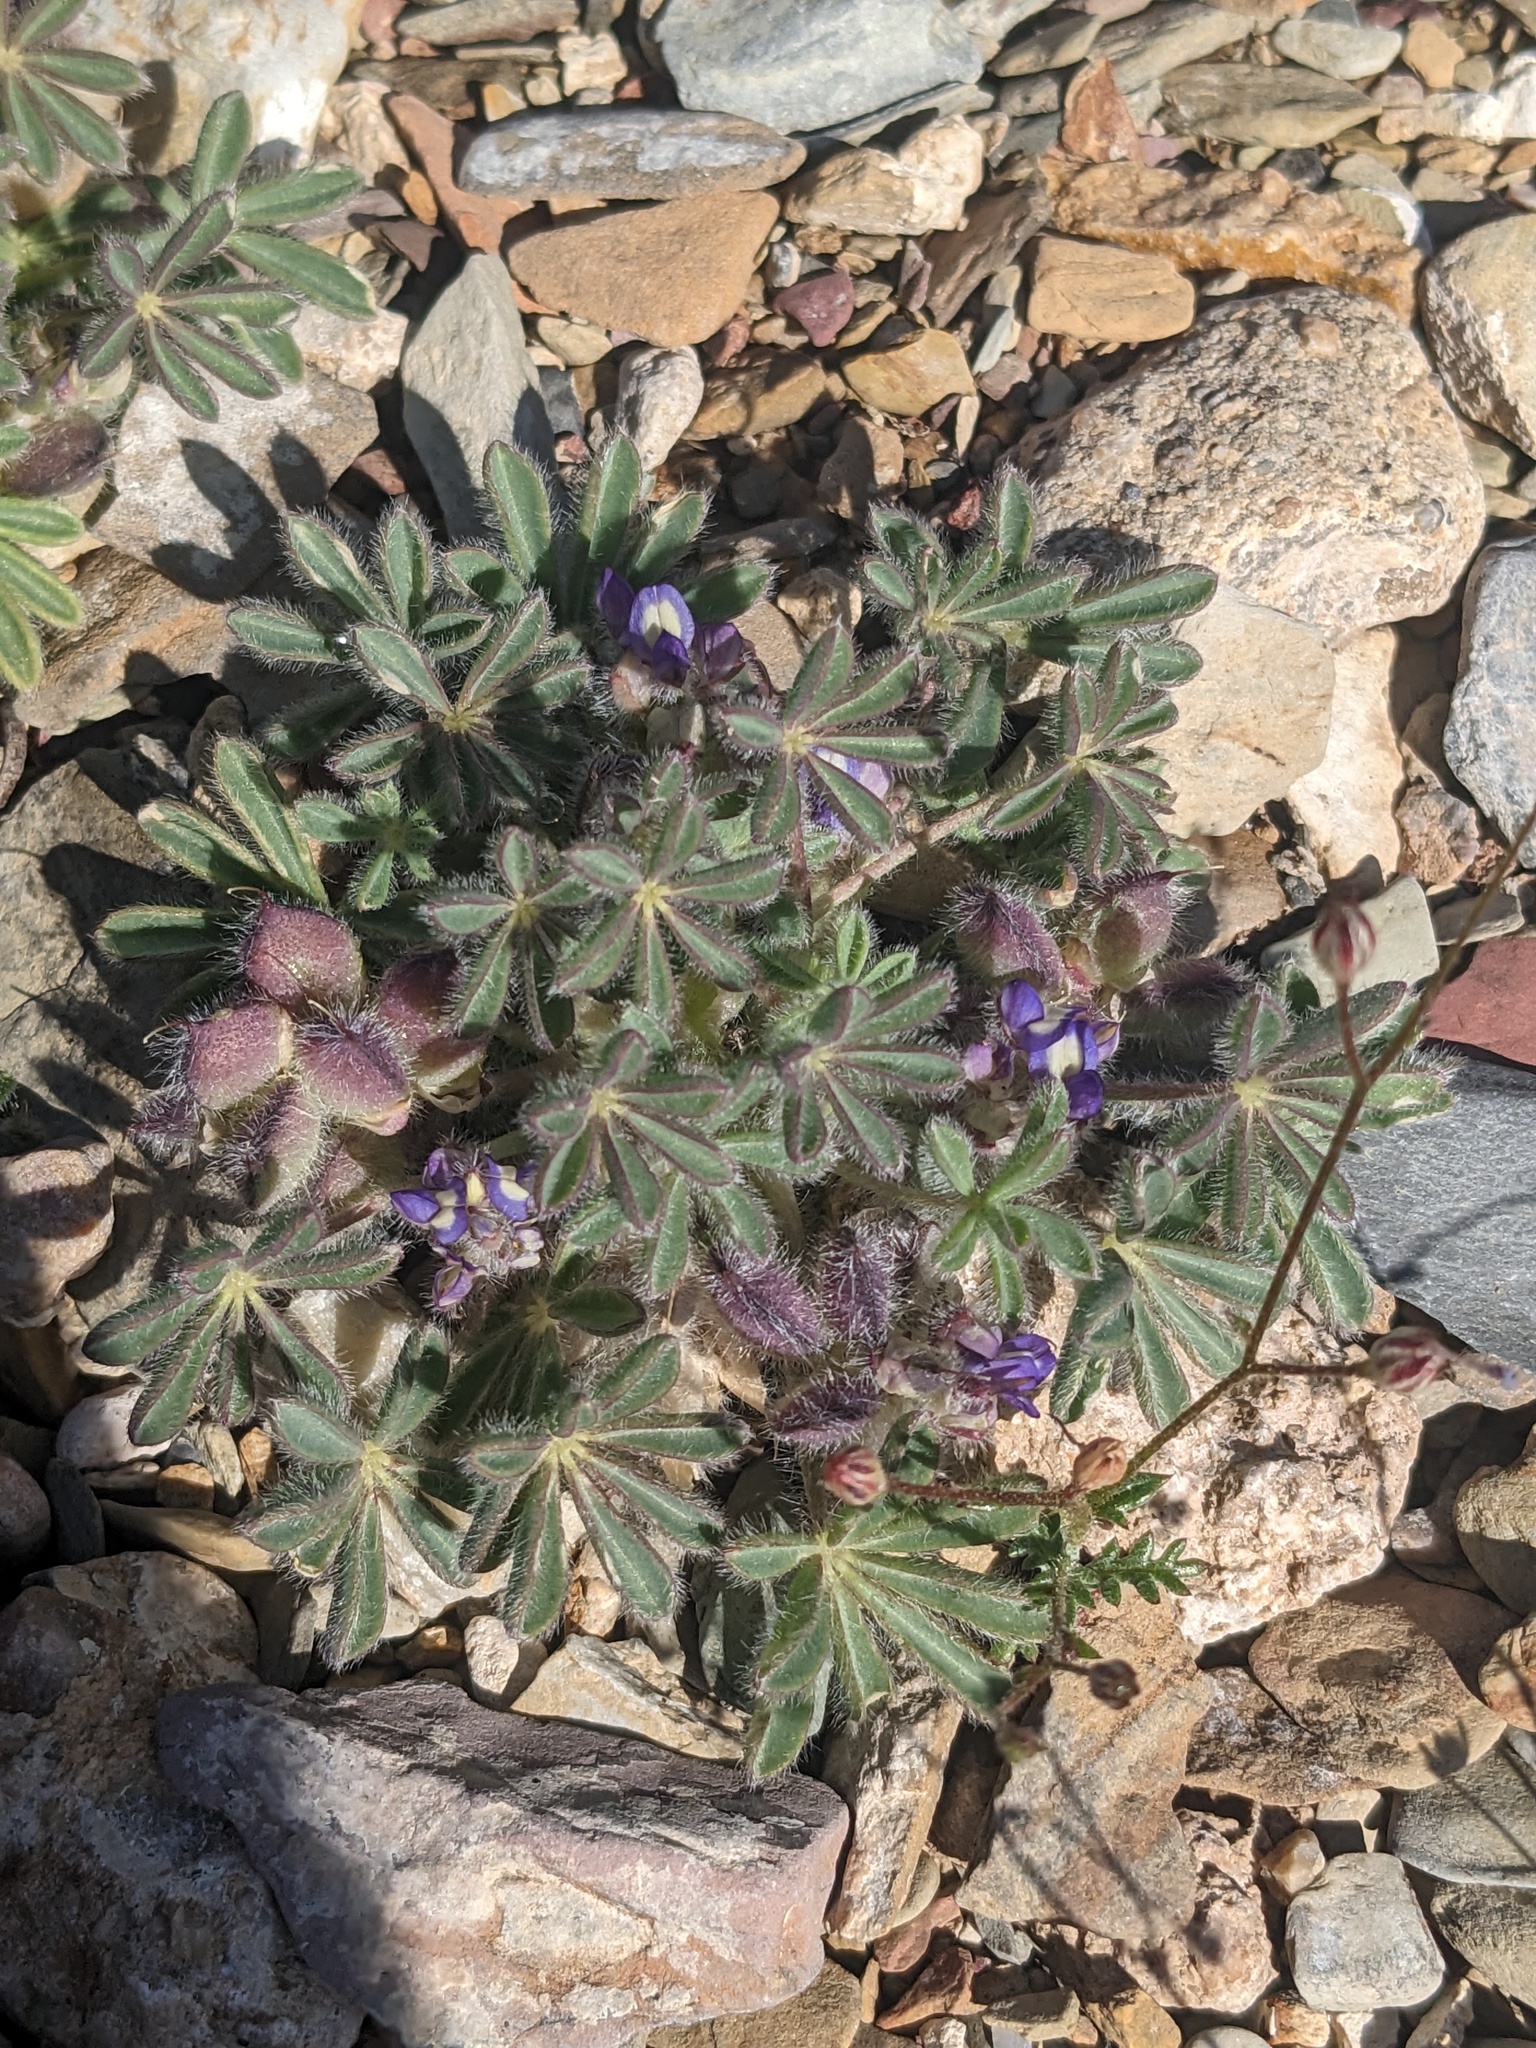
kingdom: Plantae
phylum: Tracheophyta
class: Magnoliopsida
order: Fabales
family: Fabaceae
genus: Lupinus
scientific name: Lupinus brevicaulis
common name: Sand lupine
